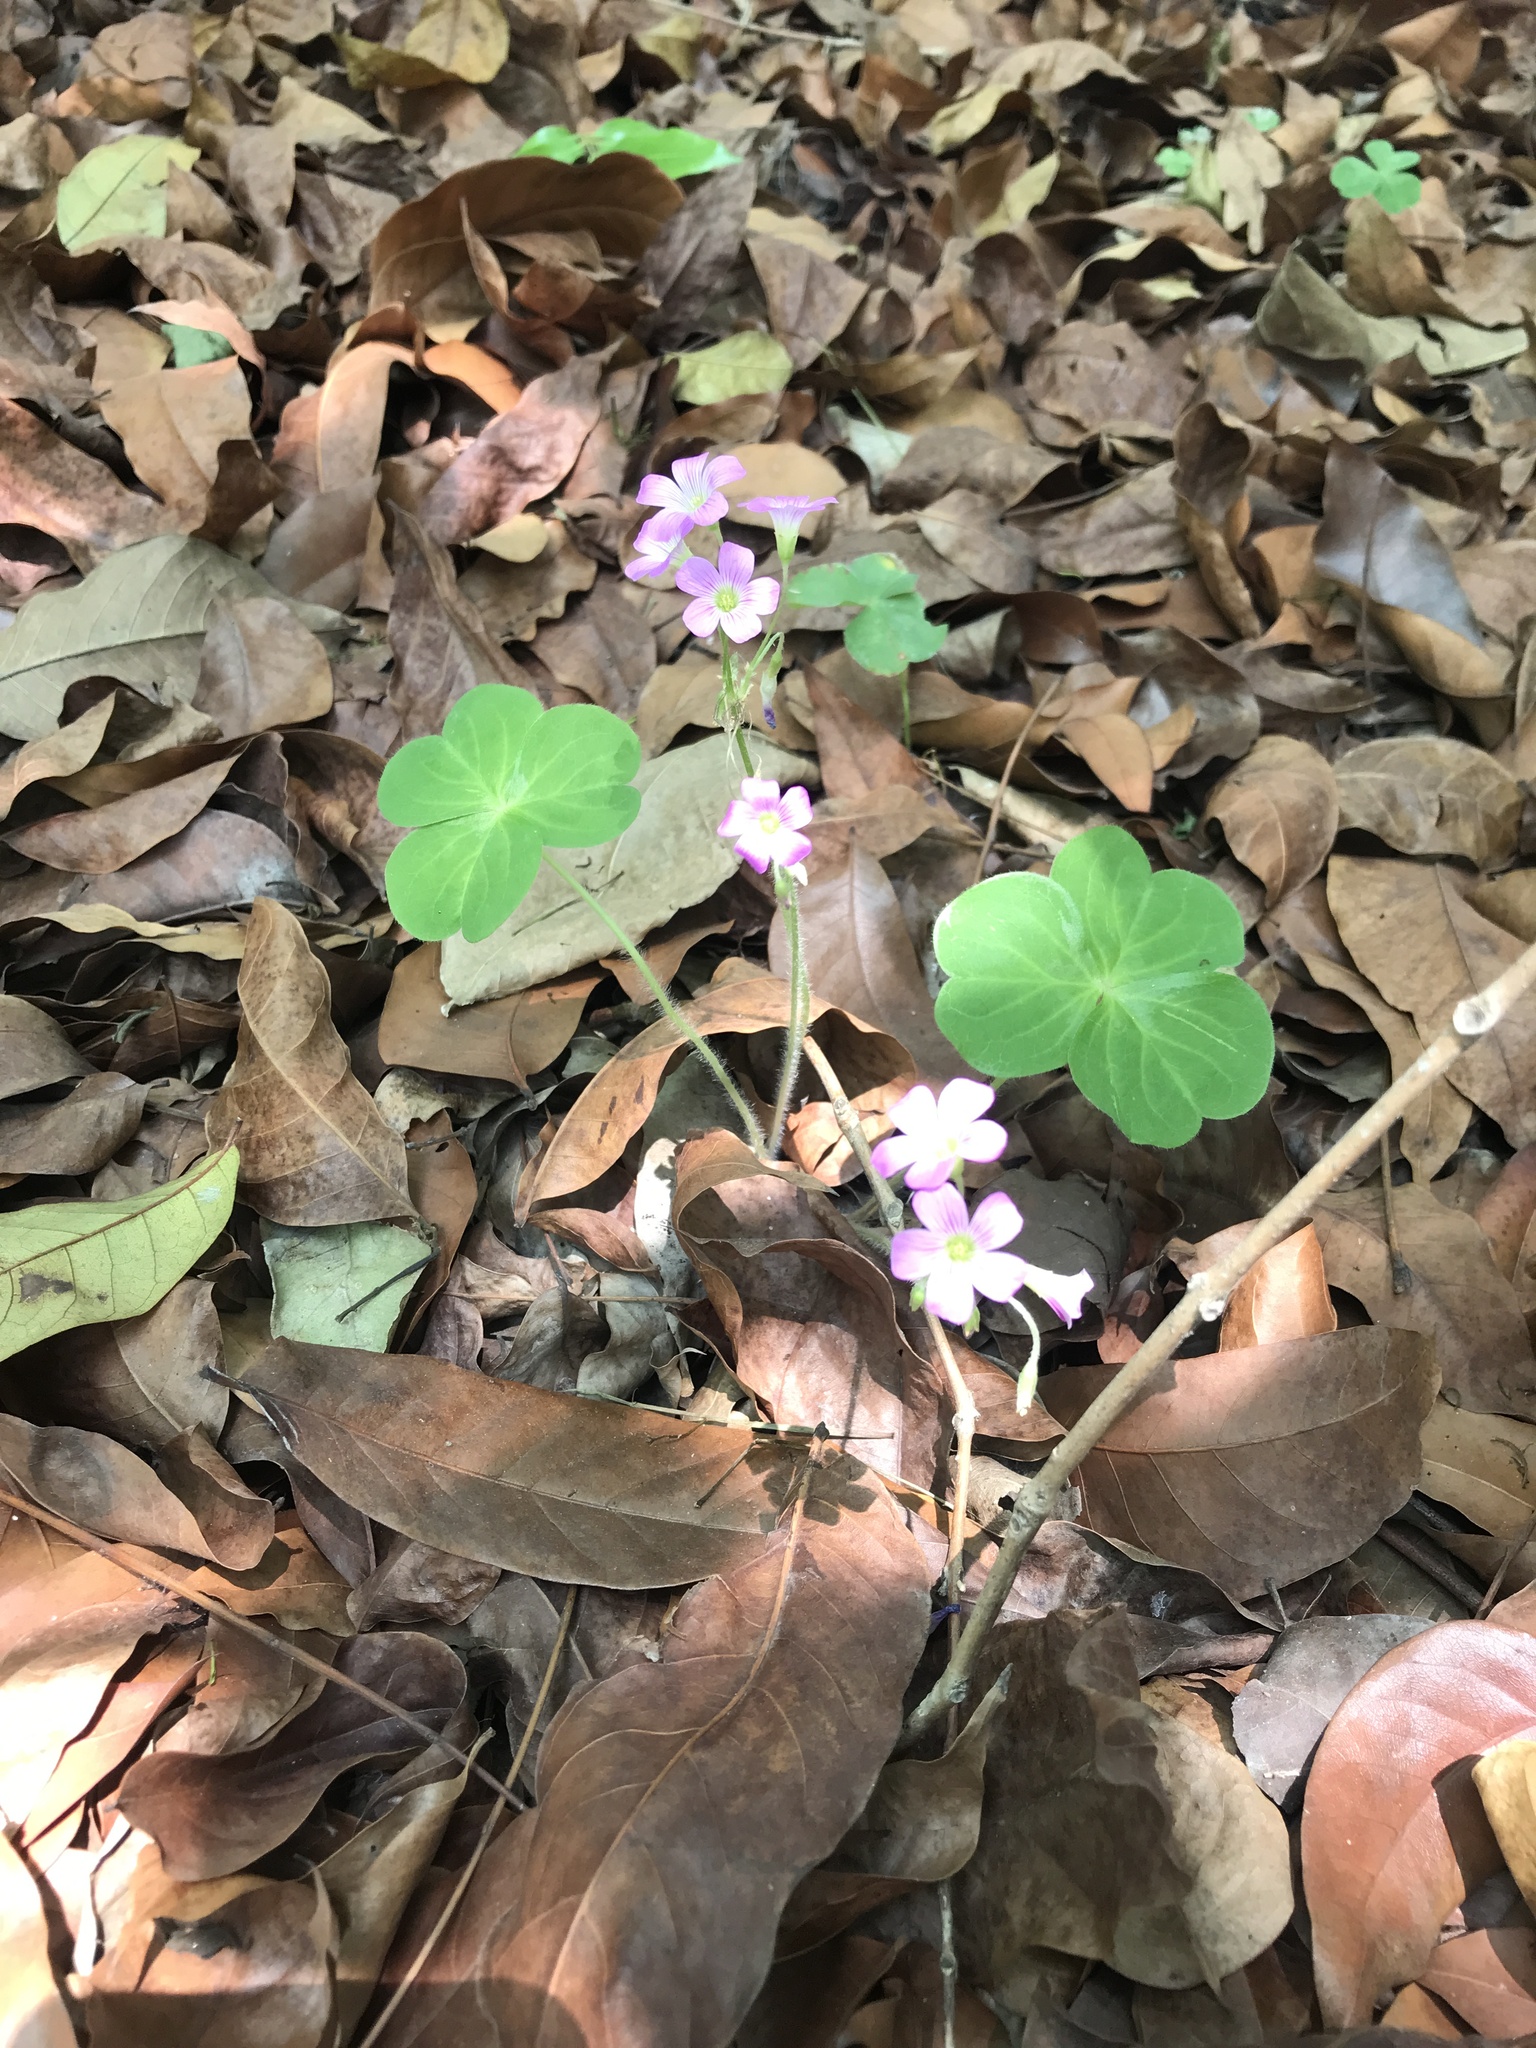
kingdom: Plantae
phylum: Tracheophyta
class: Magnoliopsida
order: Oxalidales
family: Oxalidaceae
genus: Oxalis
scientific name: Oxalis debilis
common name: Large-flowered pink-sorrel
